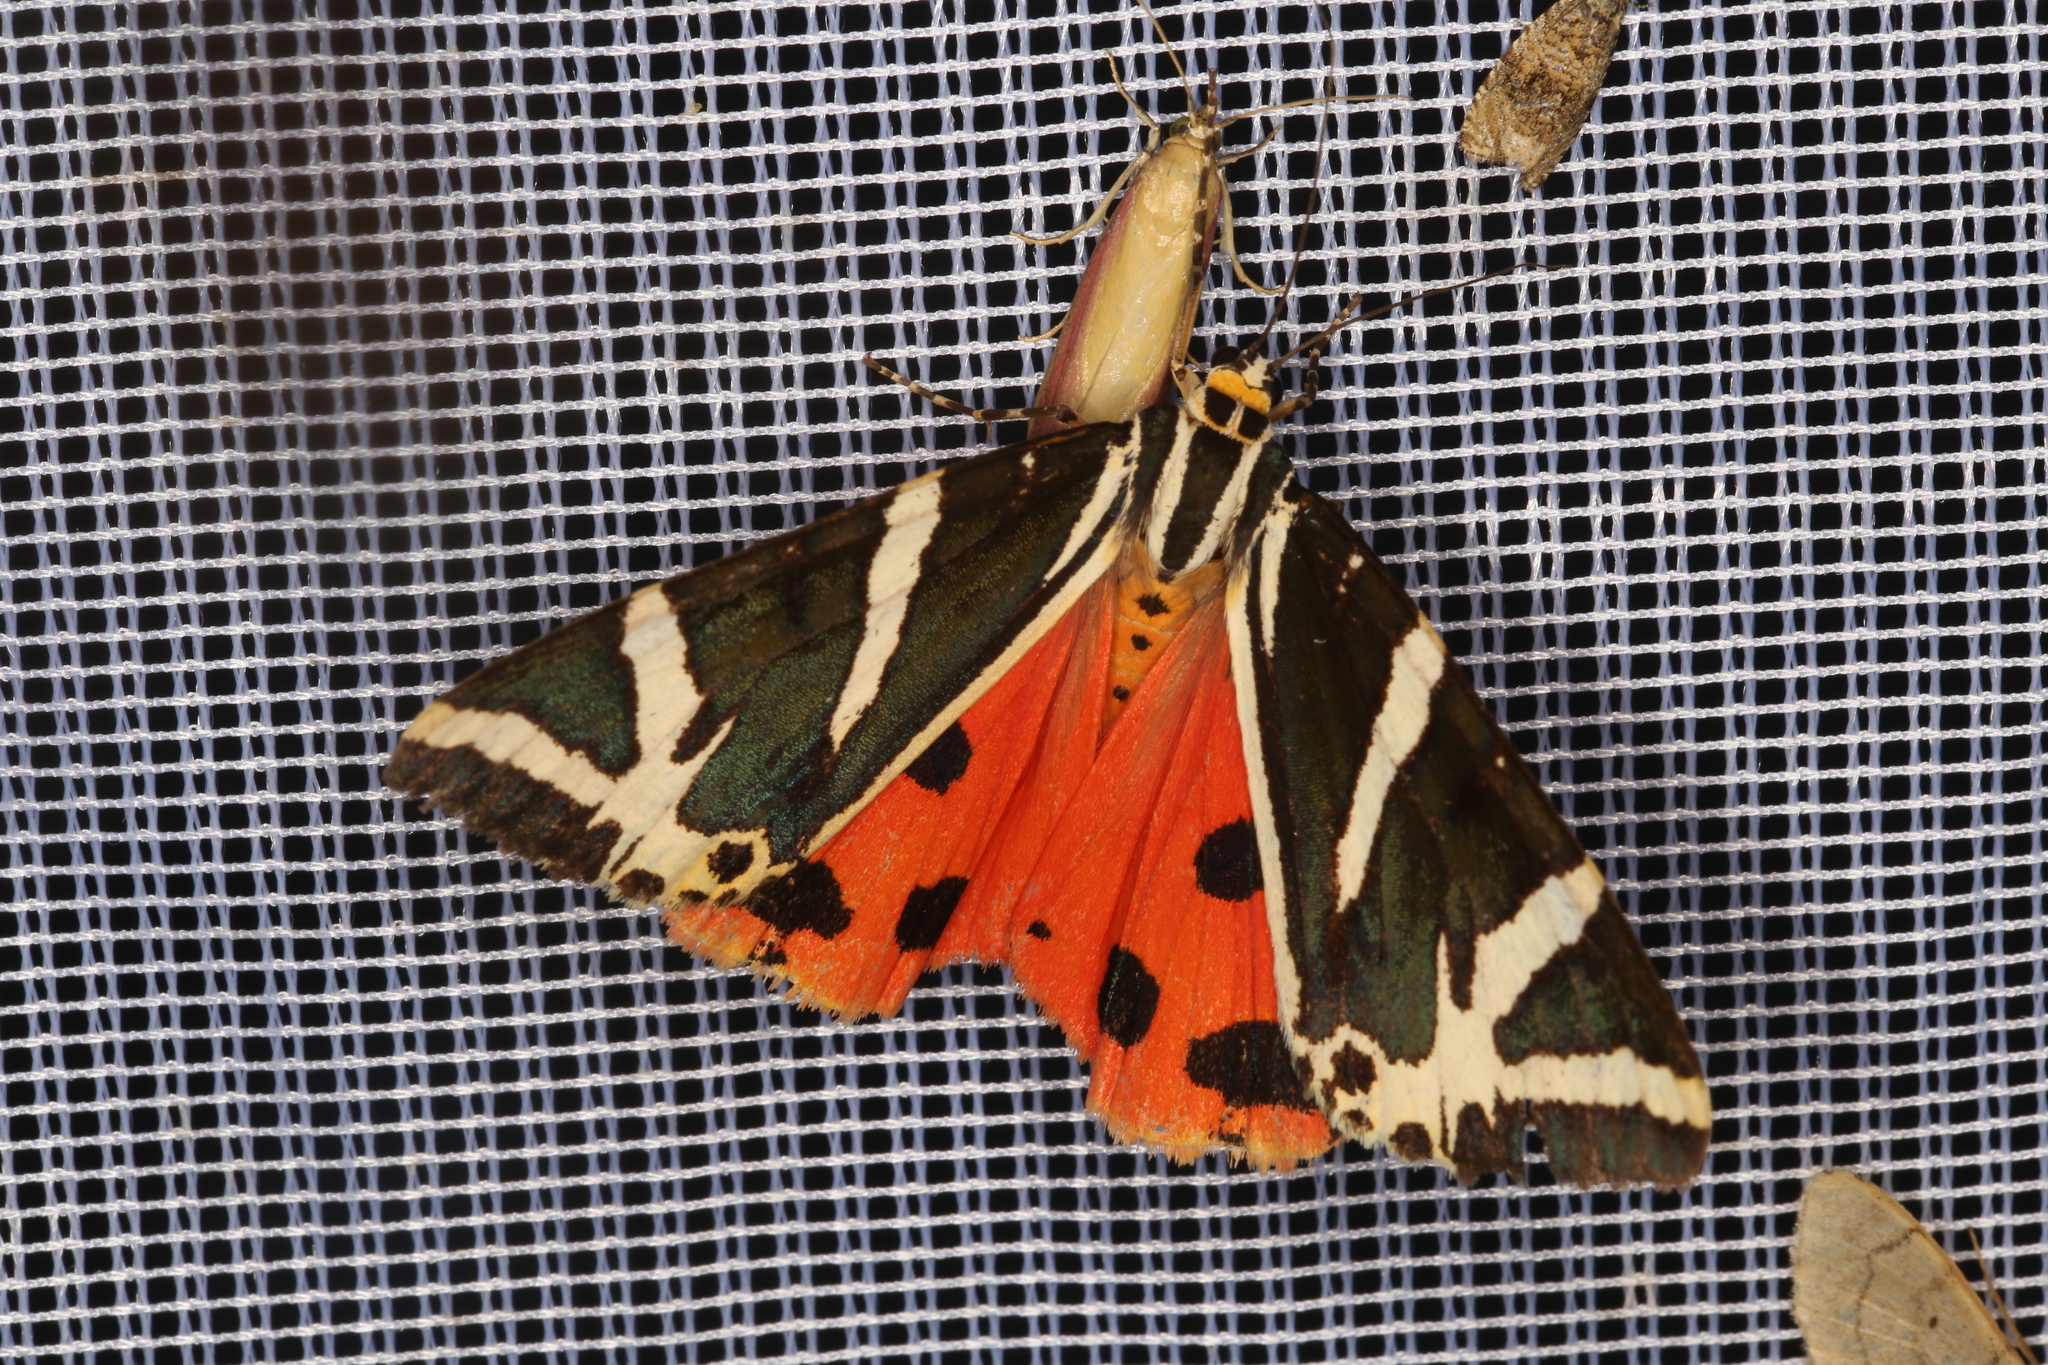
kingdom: Animalia
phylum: Arthropoda
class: Insecta
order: Lepidoptera
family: Erebidae
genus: Euplagia
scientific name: Euplagia quadripunctaria
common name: Jersey tiger
